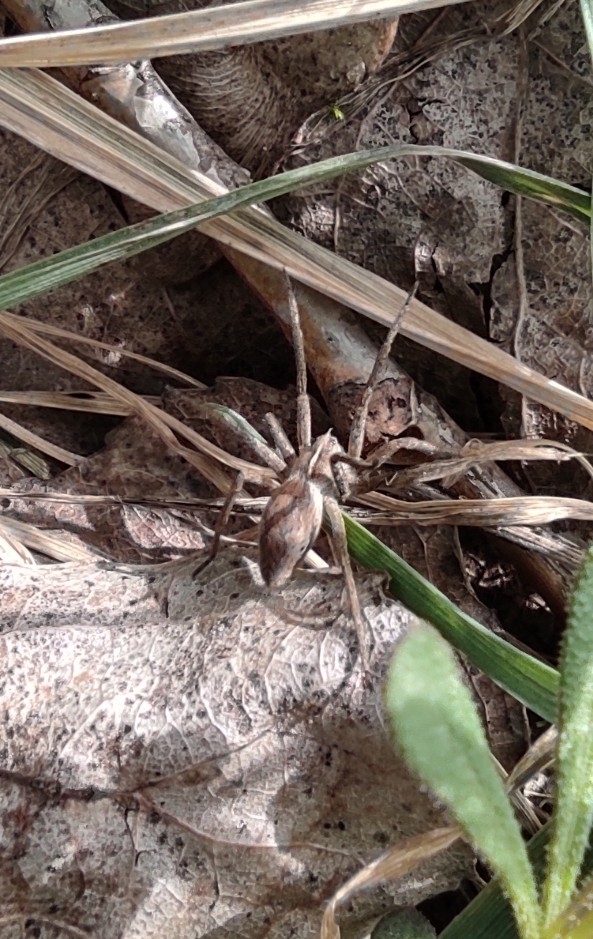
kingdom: Animalia
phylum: Arthropoda
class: Arachnida
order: Araneae
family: Pisauridae
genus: Pisaura
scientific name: Pisaura mirabilis
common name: Tent spider
